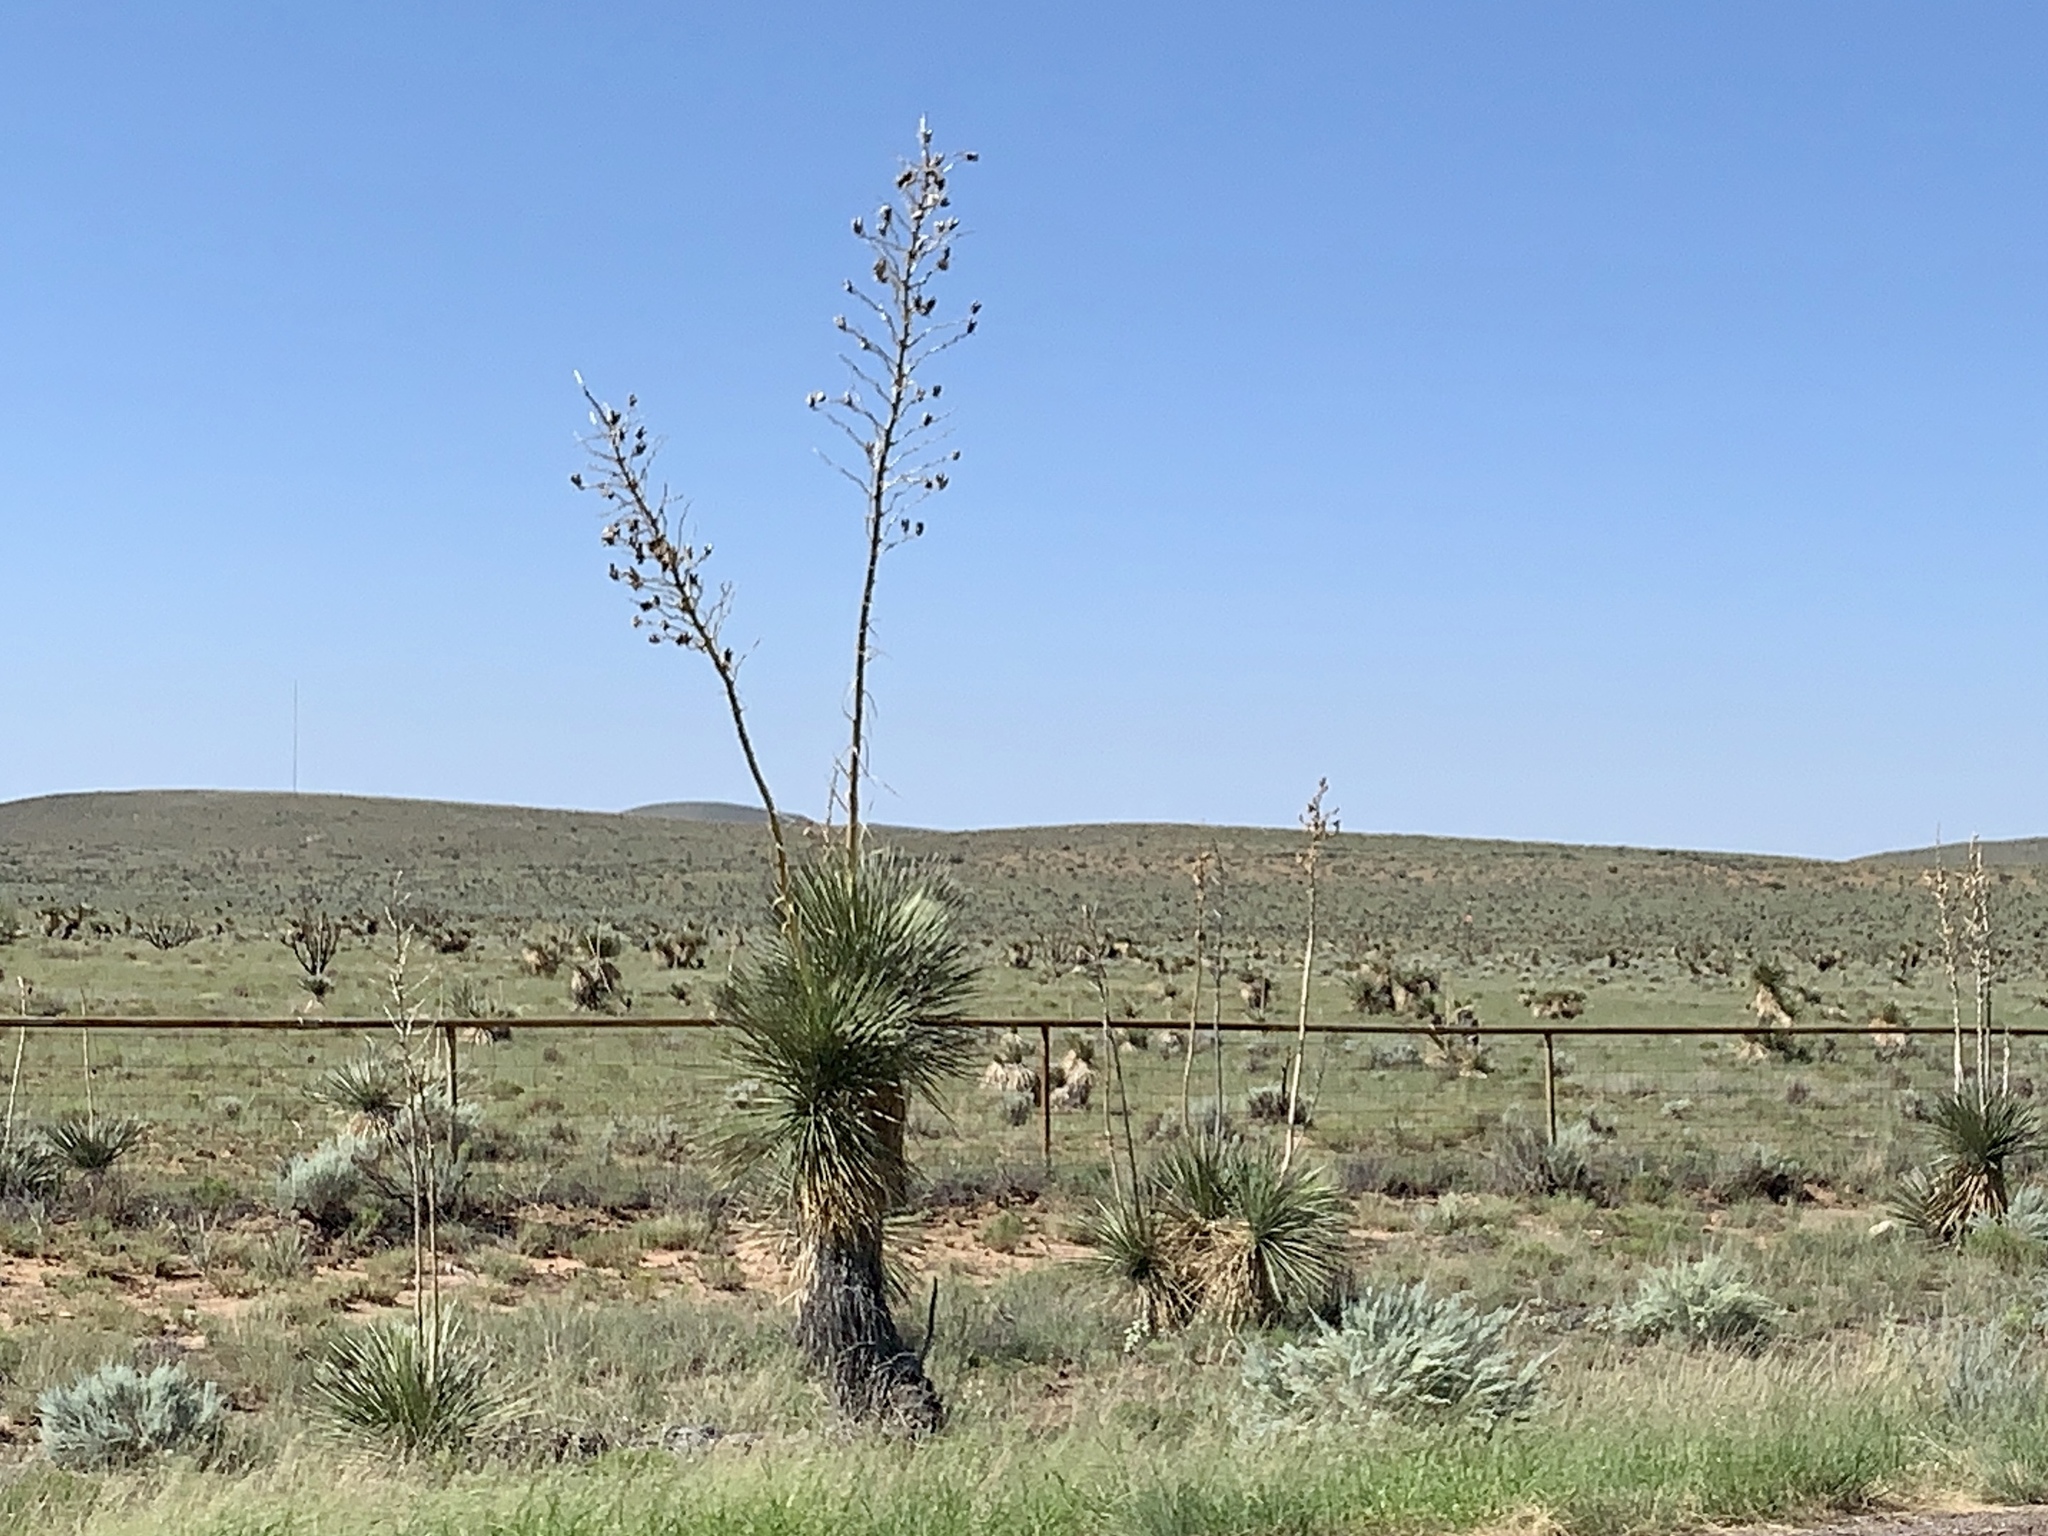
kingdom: Plantae
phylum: Tracheophyta
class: Liliopsida
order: Asparagales
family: Asparagaceae
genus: Yucca
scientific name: Yucca elata
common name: Palmella
